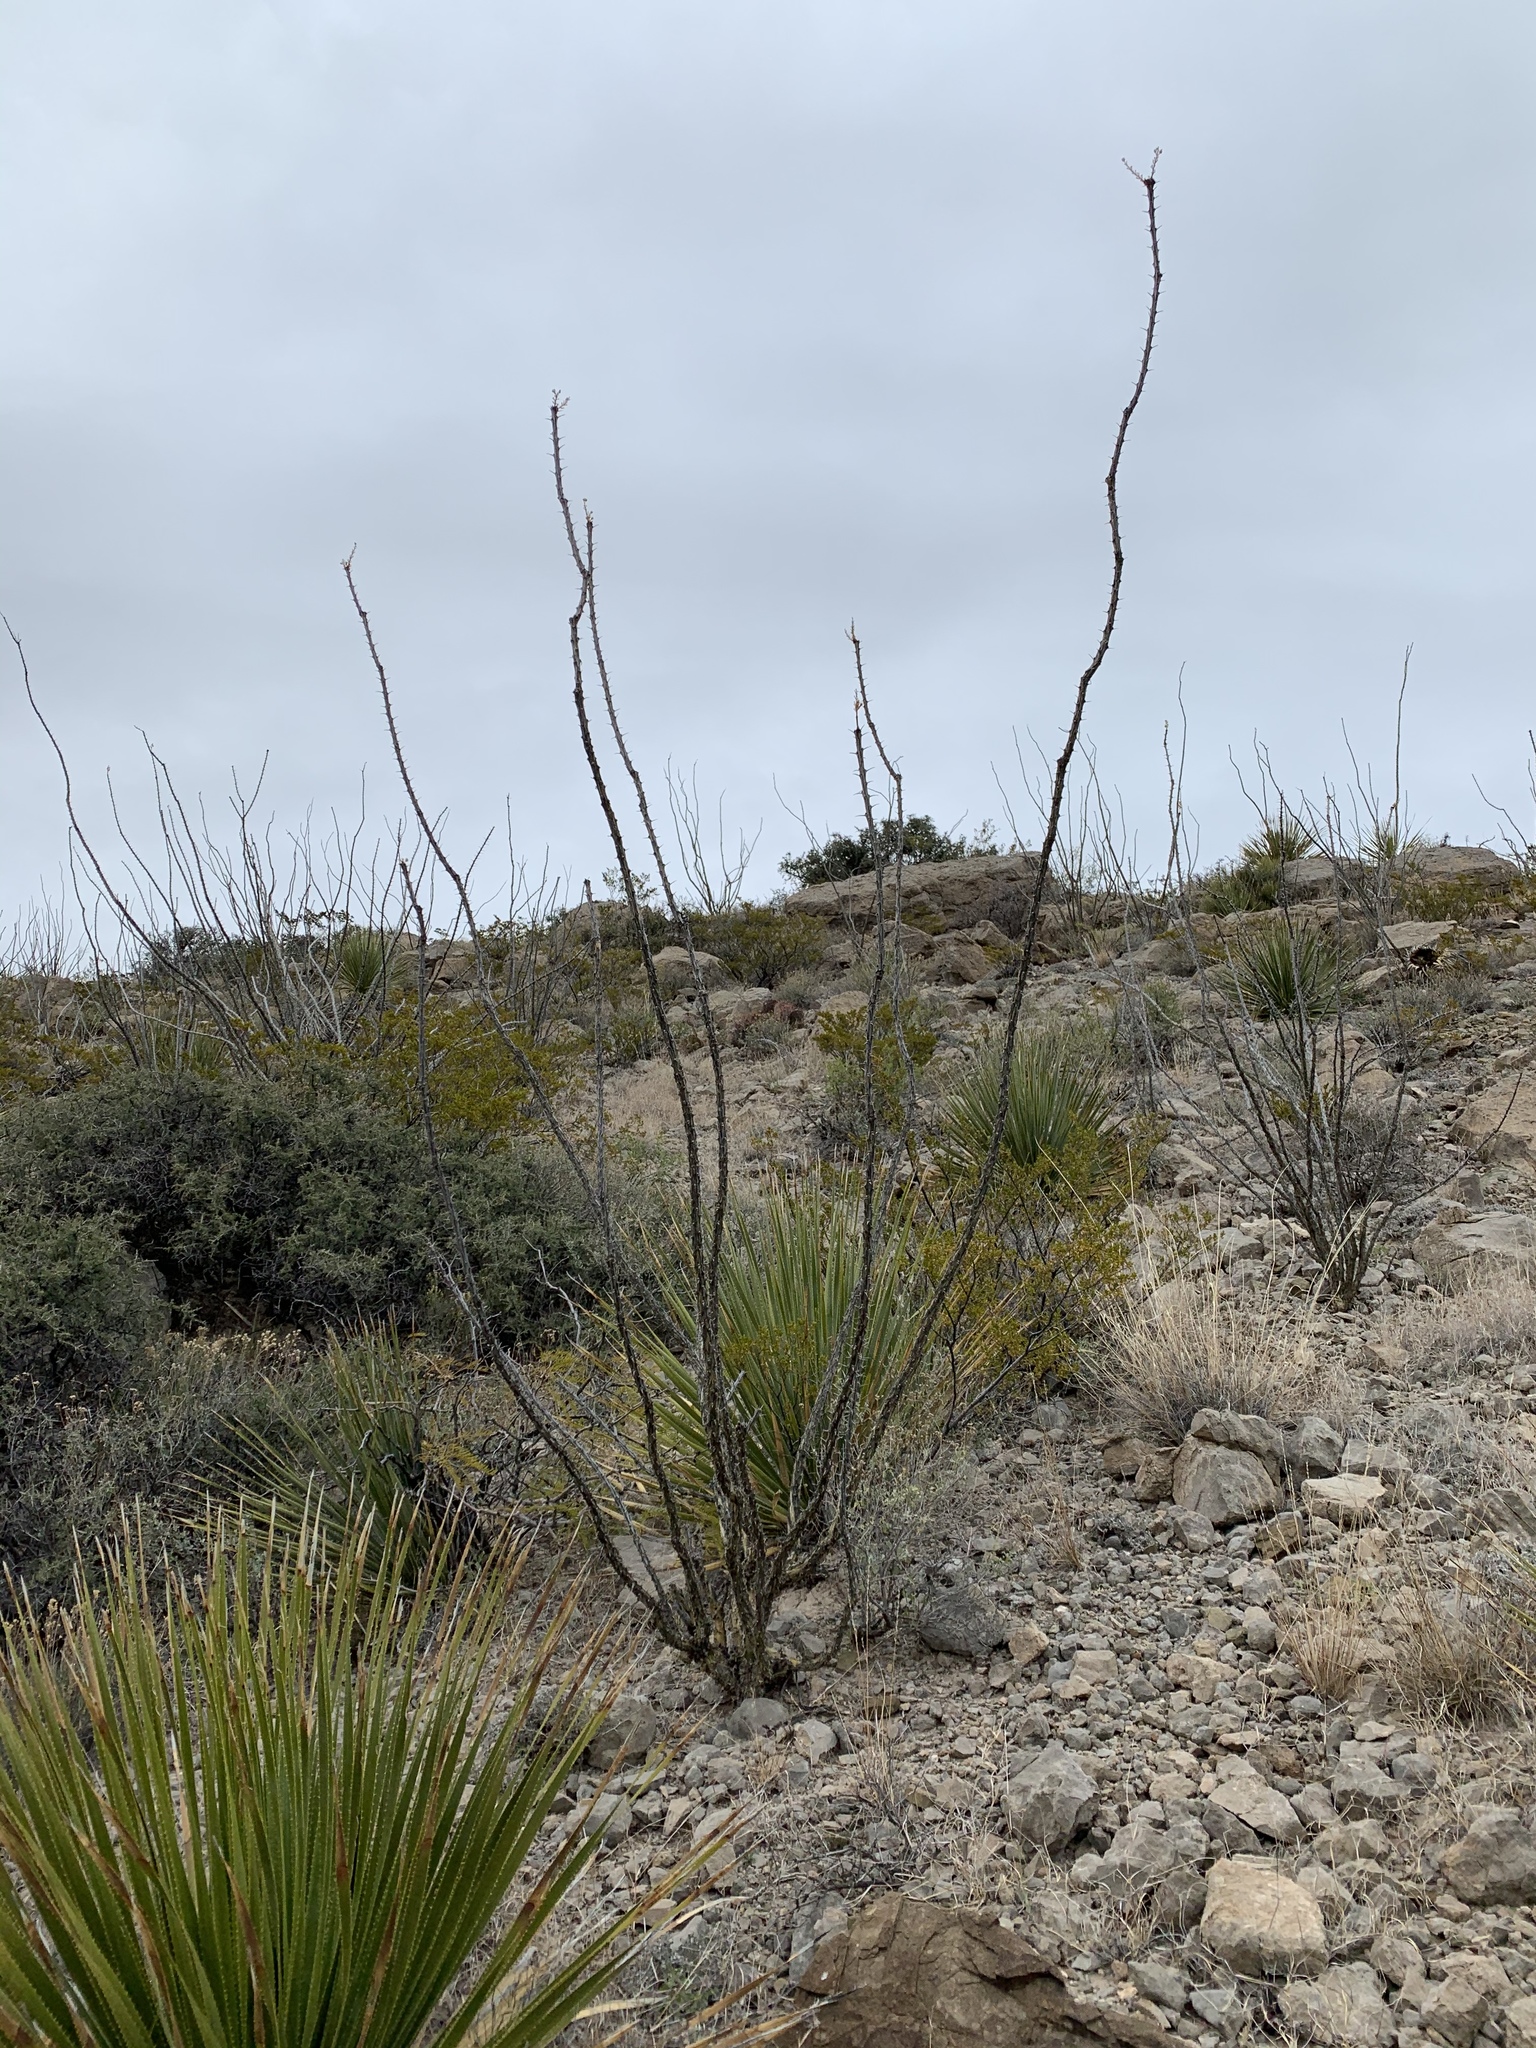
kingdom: Plantae
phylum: Tracheophyta
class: Magnoliopsida
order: Ericales
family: Fouquieriaceae
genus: Fouquieria
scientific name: Fouquieria splendens
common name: Vine-cactus
